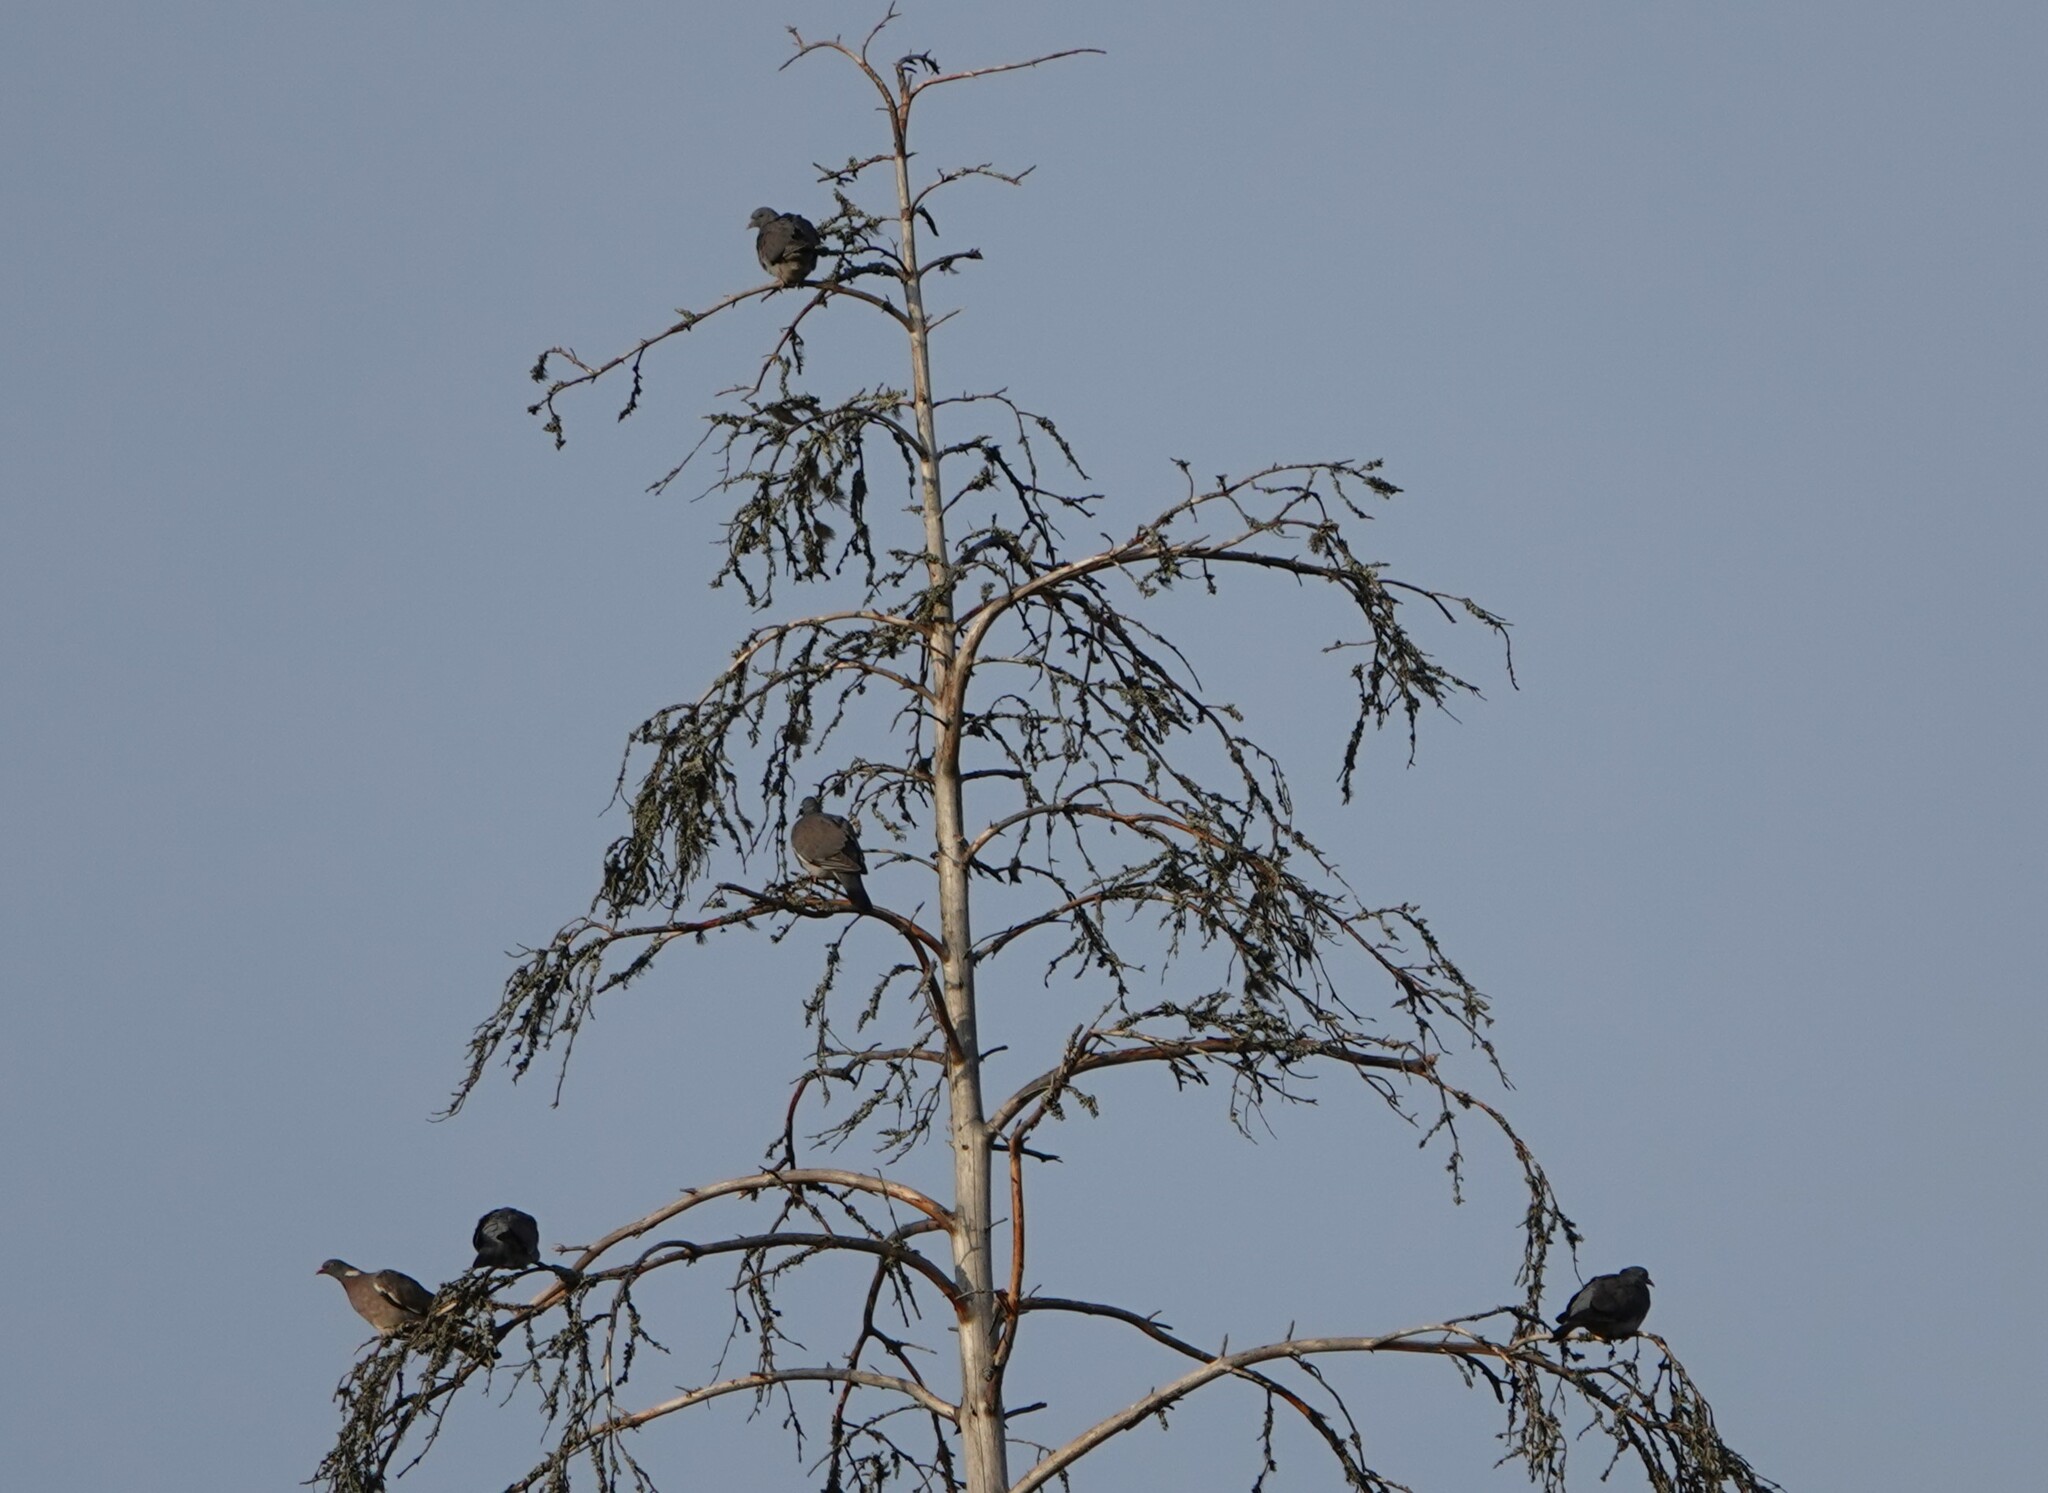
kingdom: Animalia
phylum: Chordata
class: Aves
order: Columbiformes
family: Columbidae
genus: Columba
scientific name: Columba palumbus
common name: Common wood pigeon
